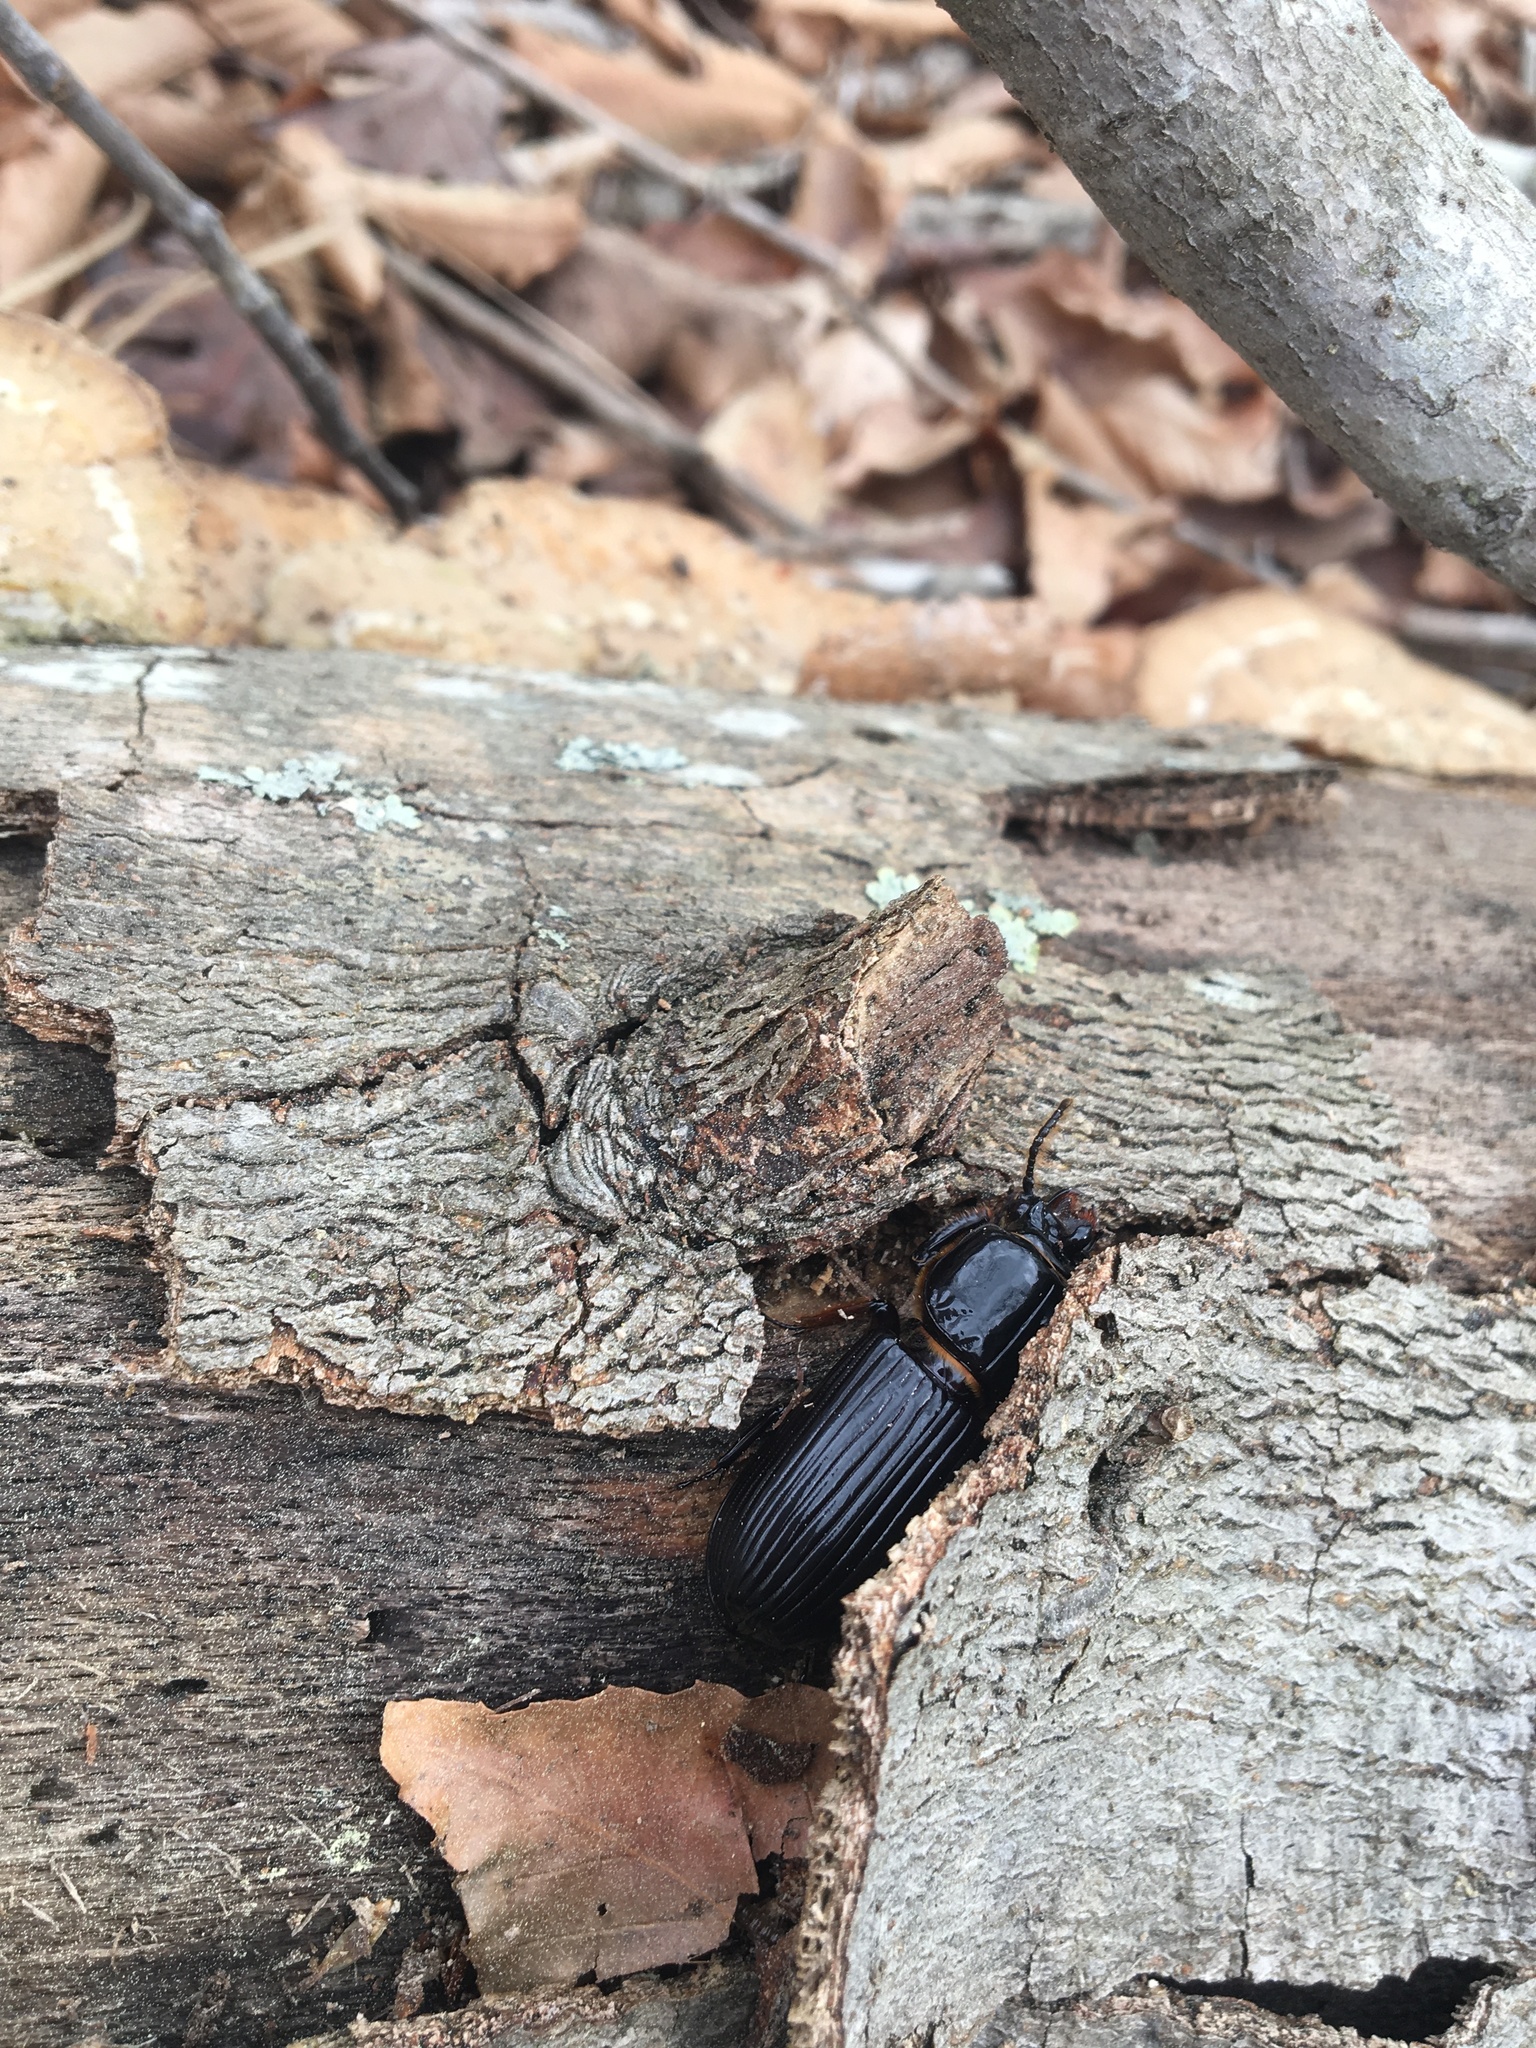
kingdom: Animalia
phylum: Arthropoda
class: Insecta
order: Coleoptera
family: Passalidae
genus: Odontotaenius
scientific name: Odontotaenius disjunctus
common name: Patent leather beetle
